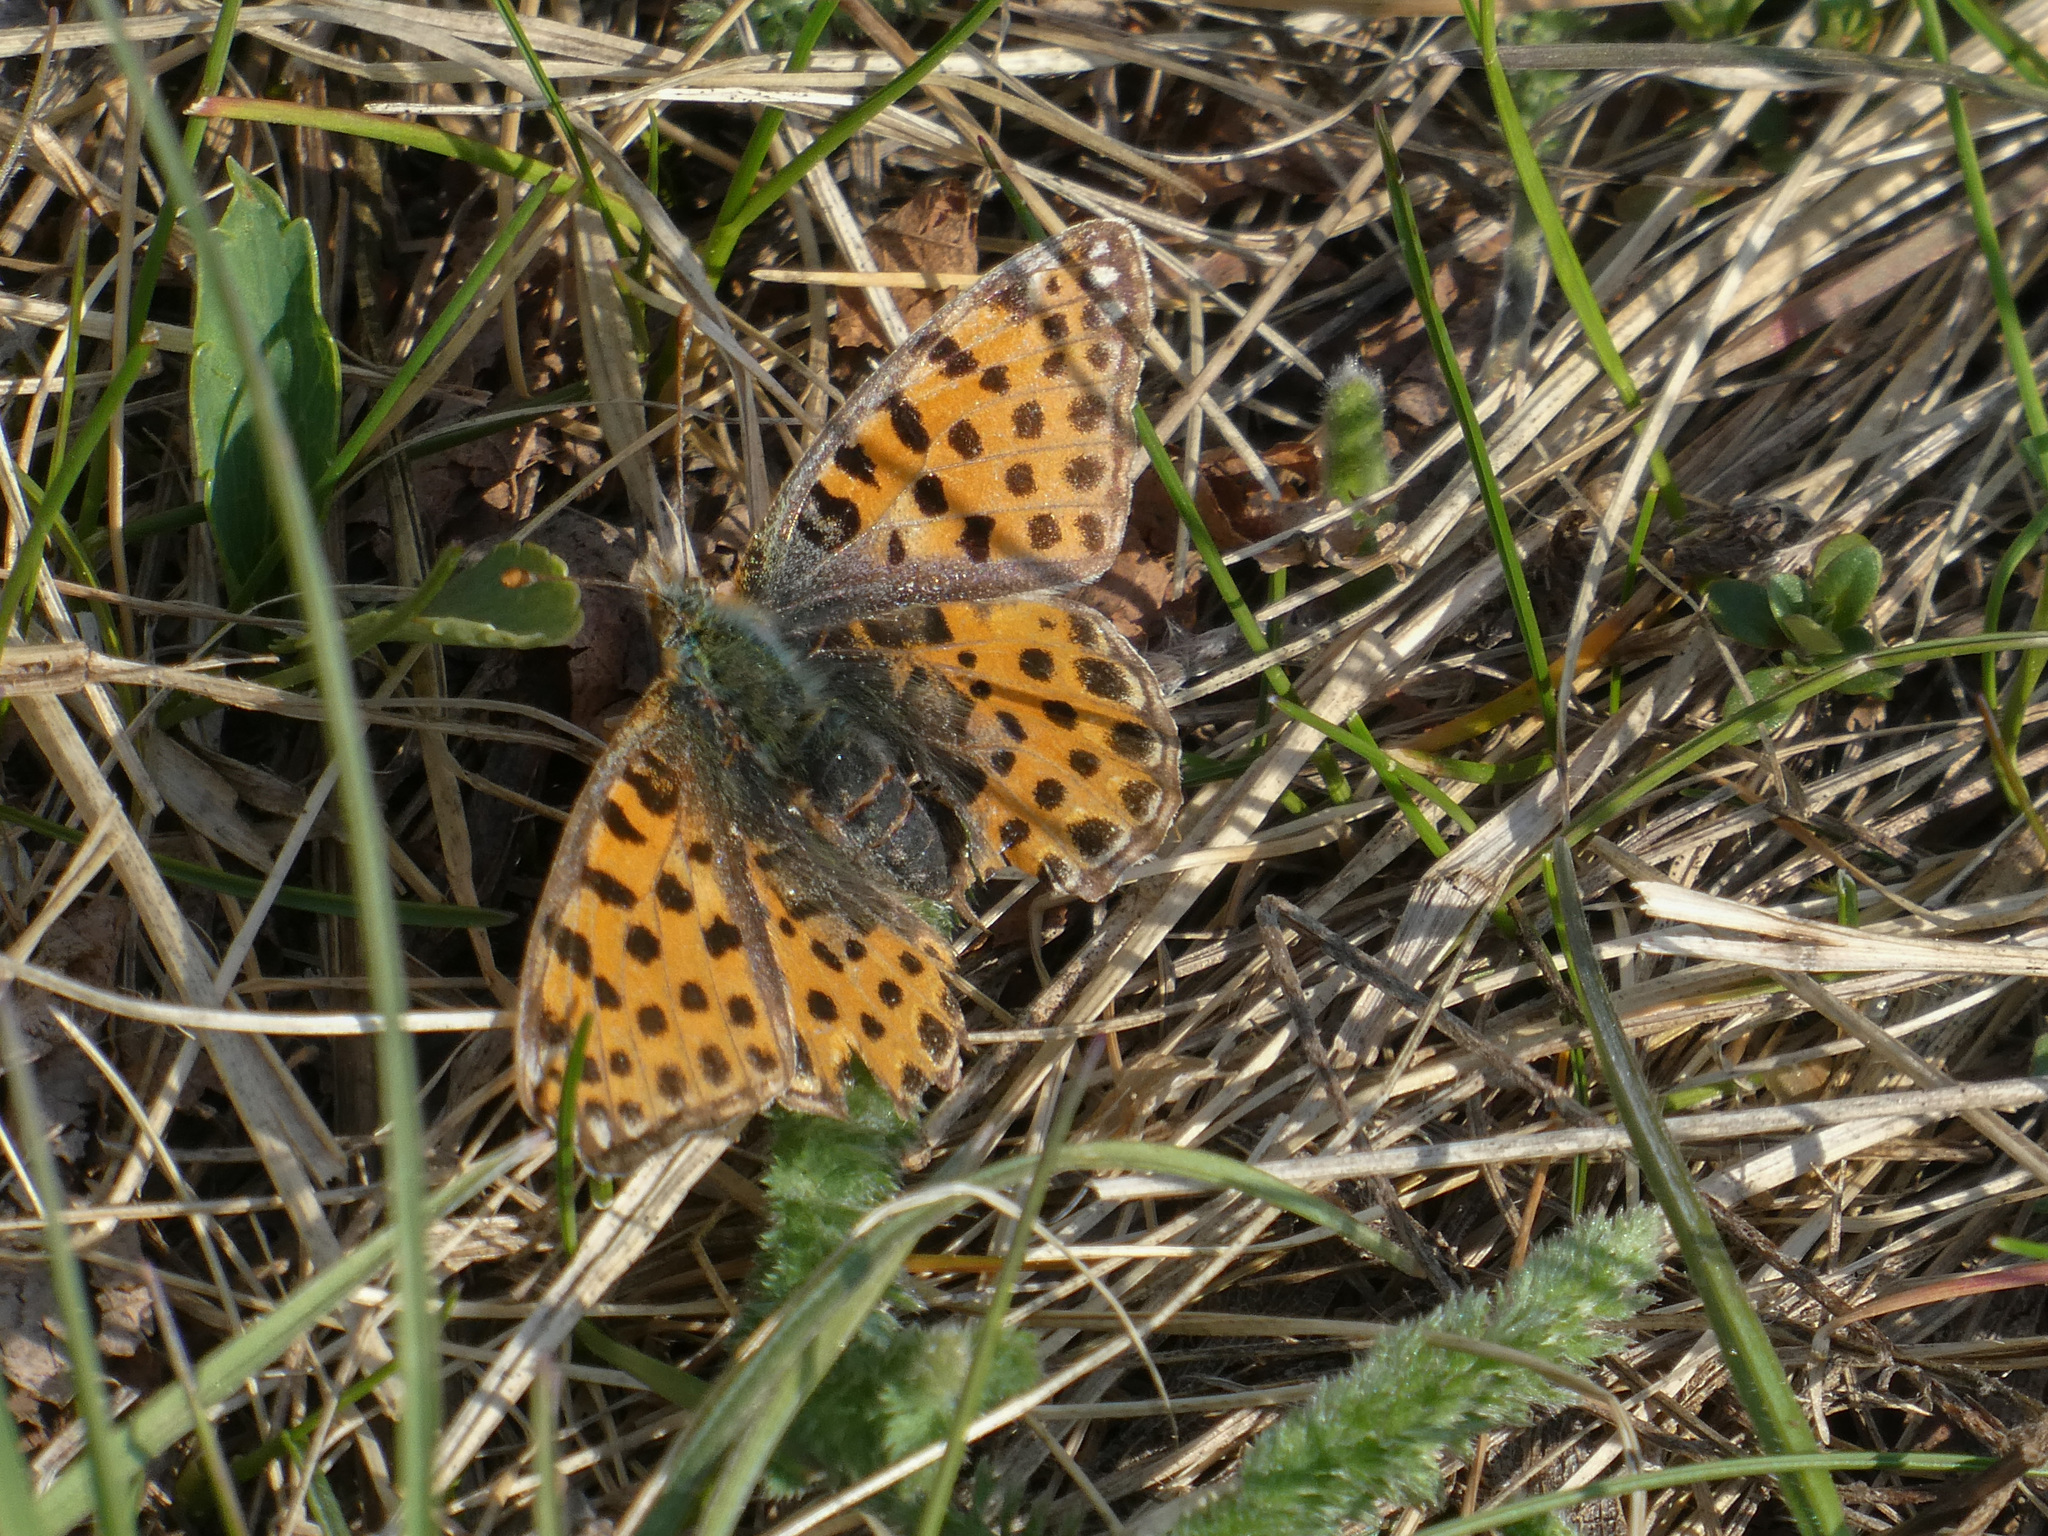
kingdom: Animalia
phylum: Arthropoda
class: Insecta
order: Lepidoptera
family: Nymphalidae
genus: Issoria
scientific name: Issoria lathonia
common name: Queen of spain fritillary
